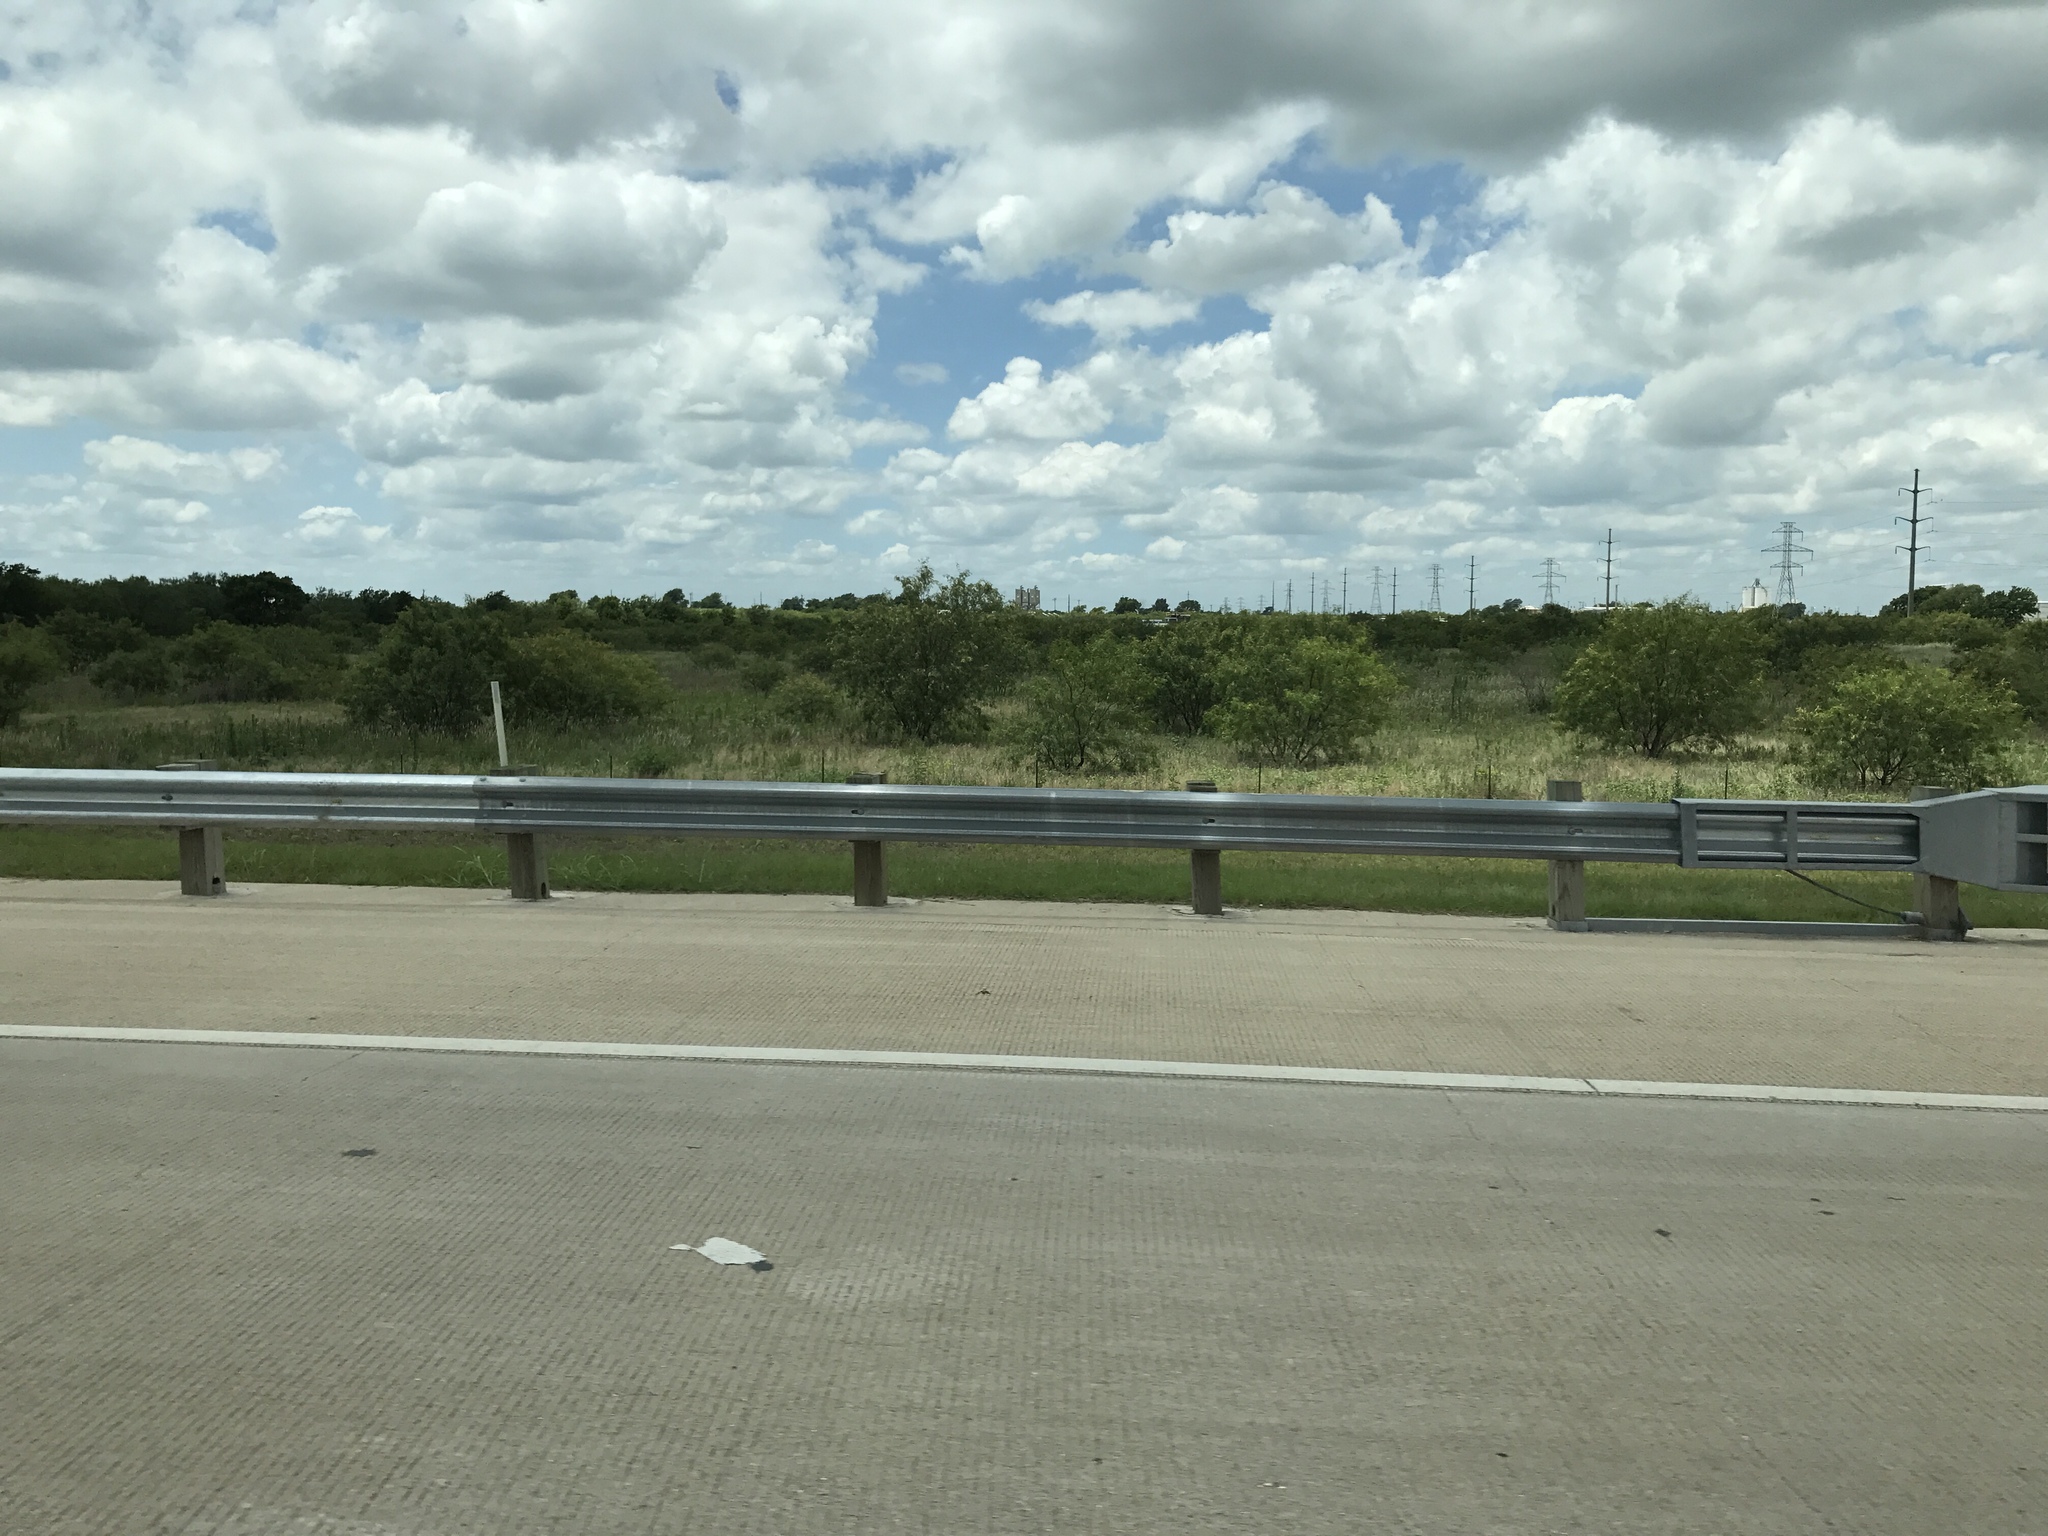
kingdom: Plantae
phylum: Tracheophyta
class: Magnoliopsida
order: Fabales
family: Fabaceae
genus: Prosopis
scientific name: Prosopis glandulosa
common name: Honey mesquite
